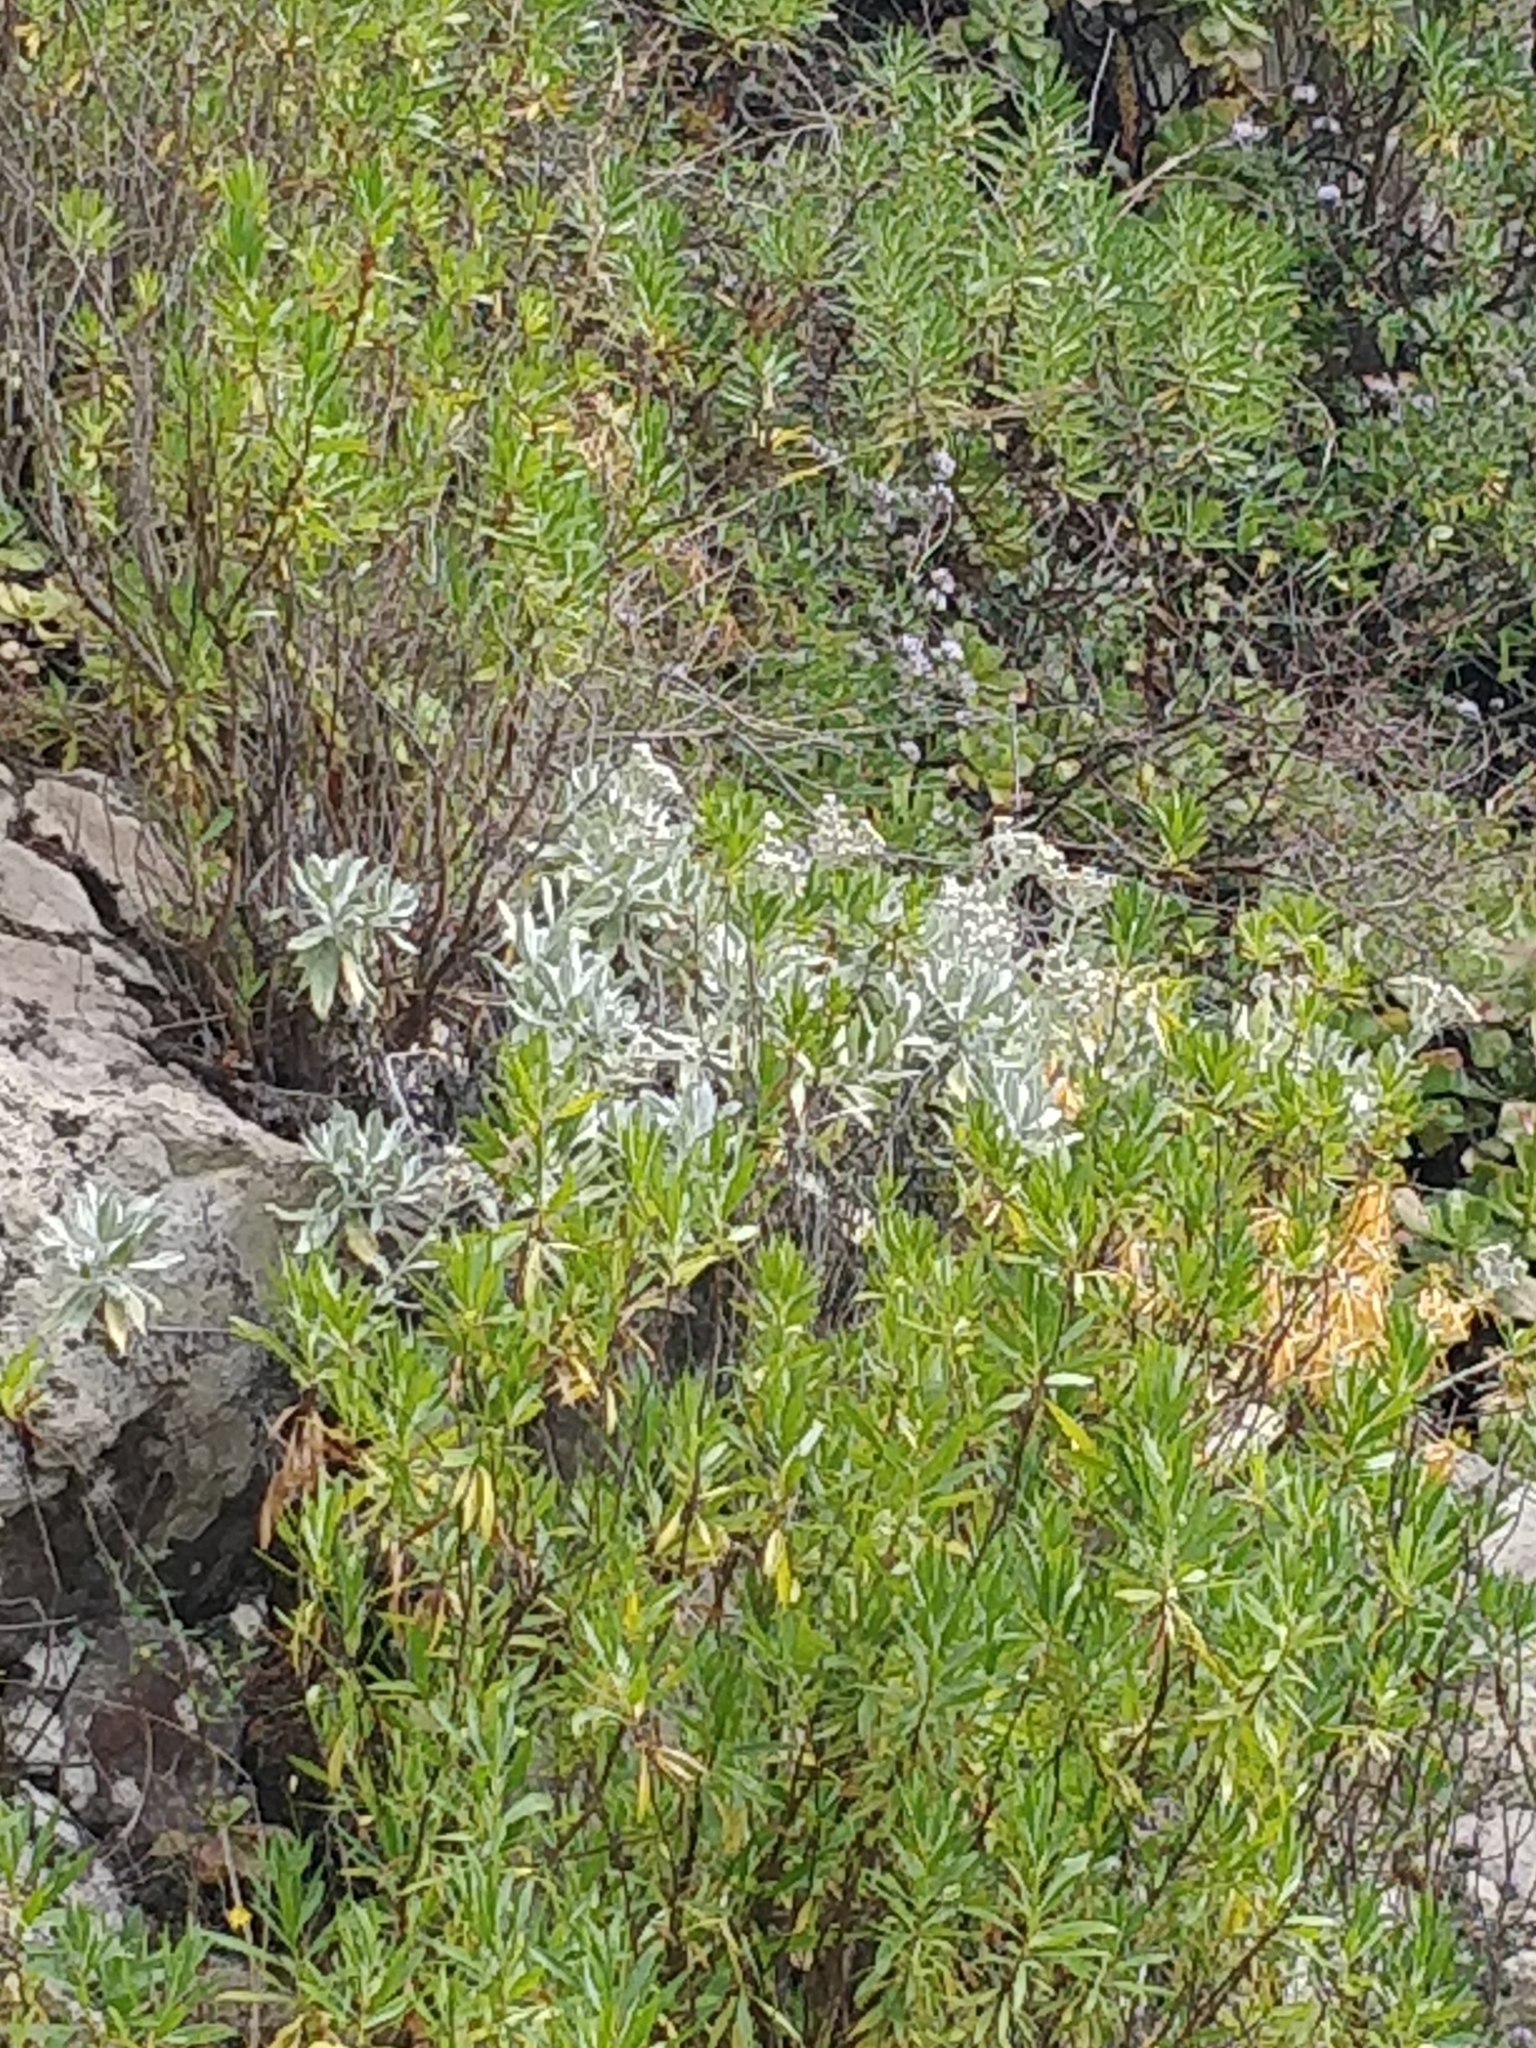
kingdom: Plantae
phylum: Tracheophyta
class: Magnoliopsida
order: Asterales
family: Asteraceae
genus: Helichrysum
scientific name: Helichrysum melaleucum
